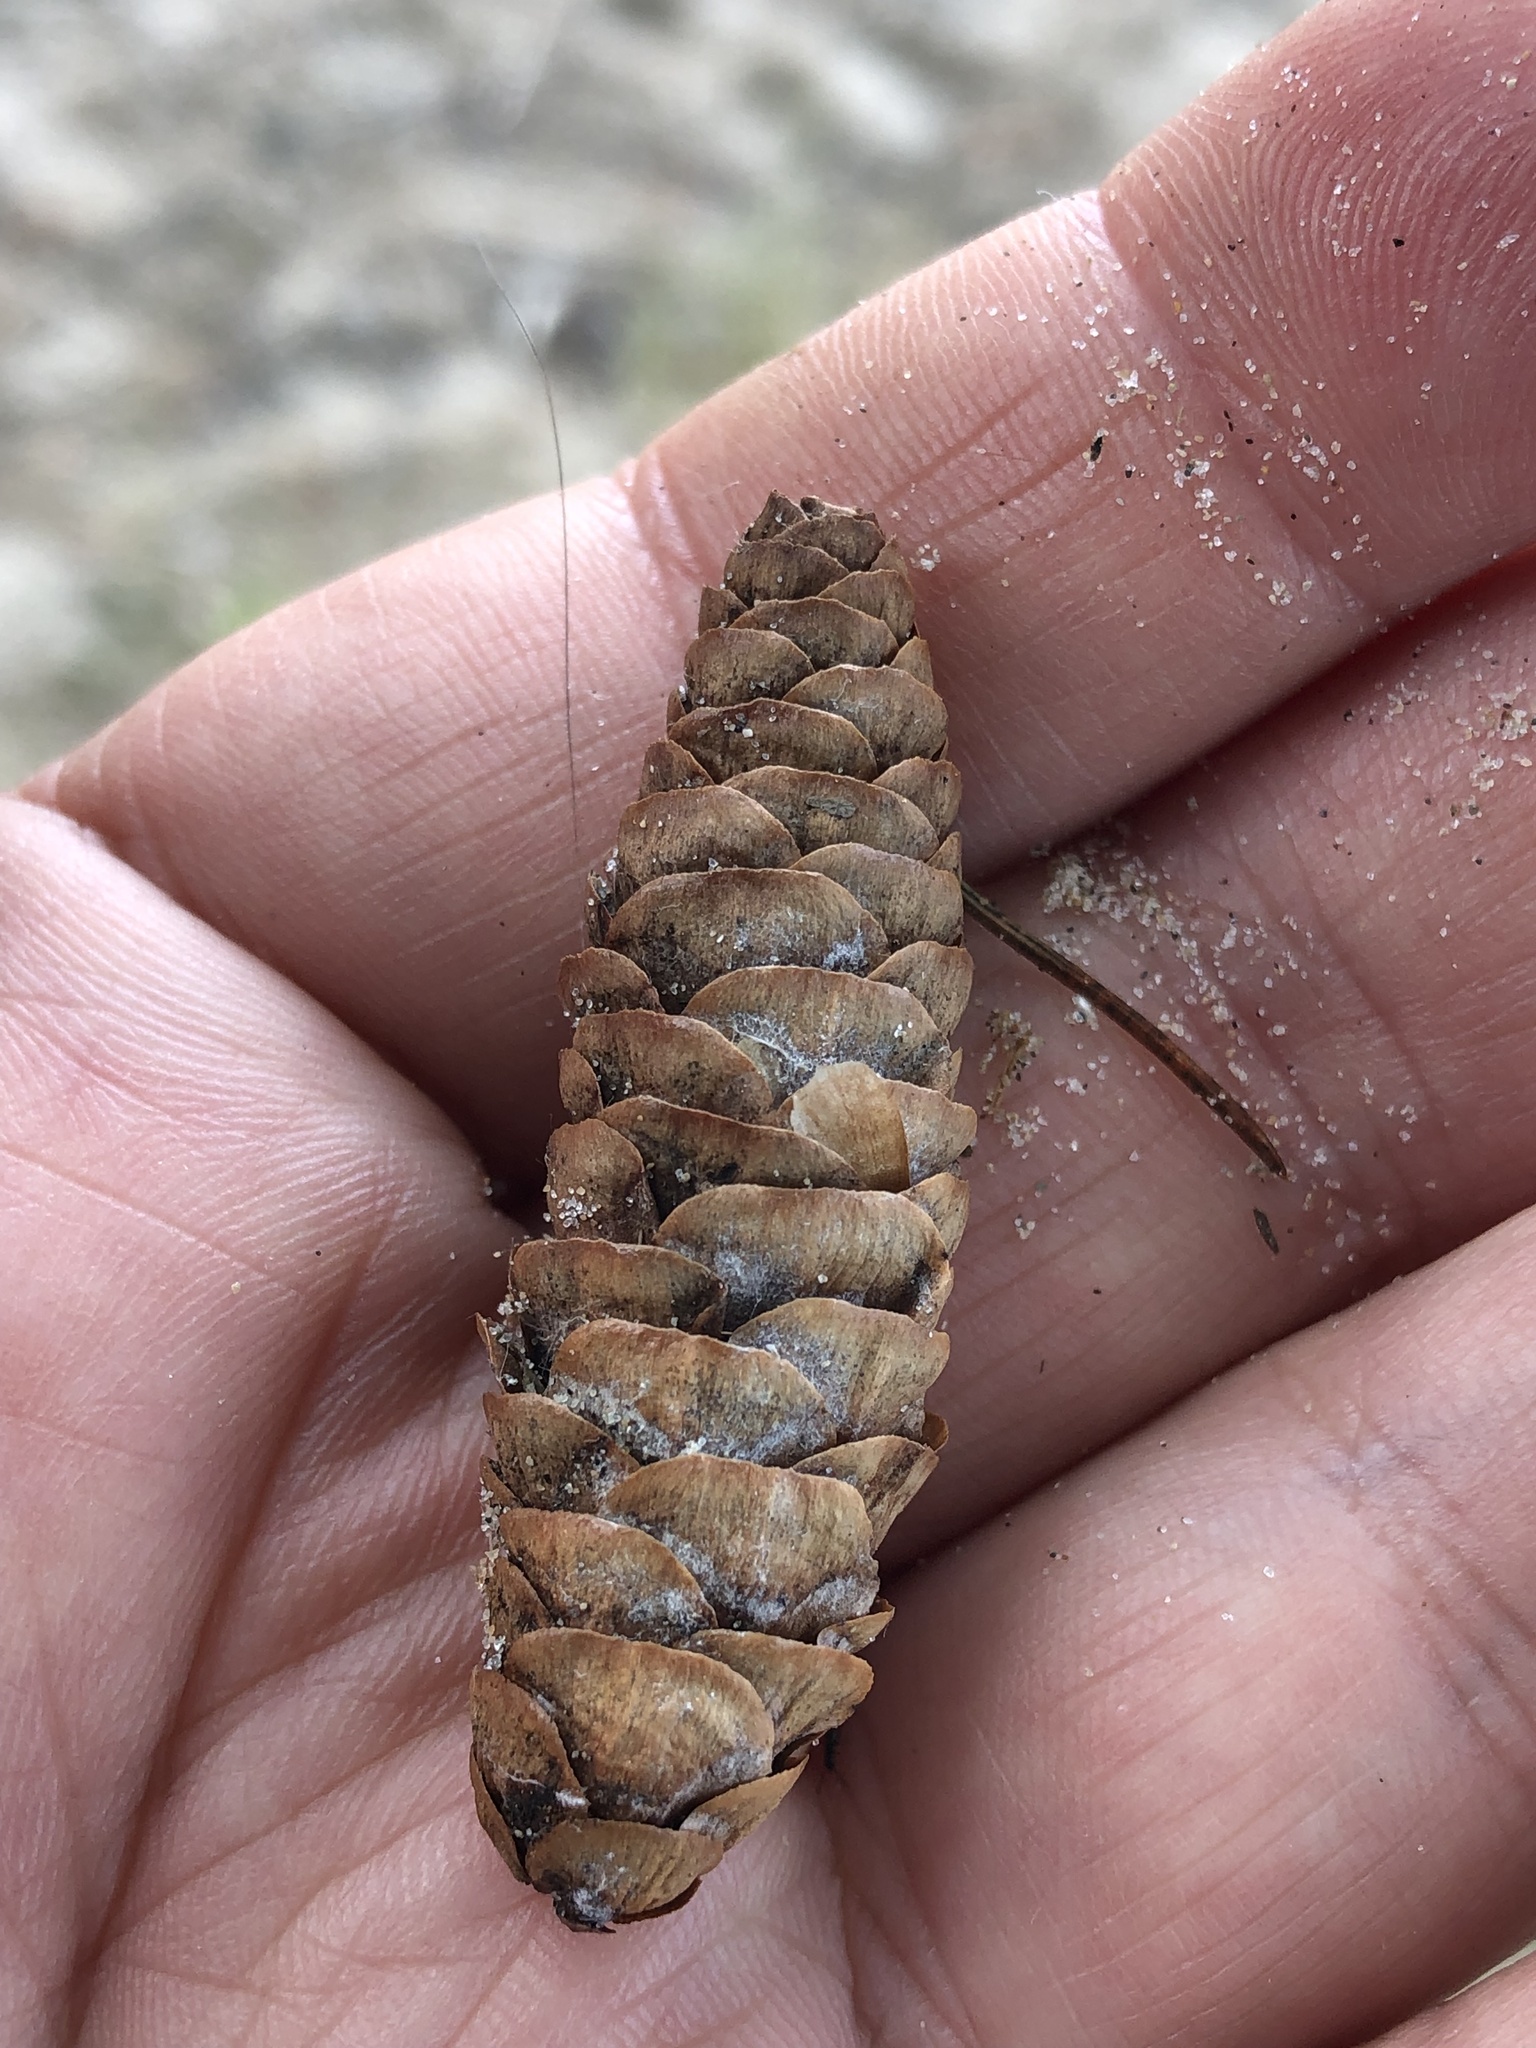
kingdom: Plantae
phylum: Tracheophyta
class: Pinopsida
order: Pinales
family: Pinaceae
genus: Picea
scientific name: Picea glauca
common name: White spruce
